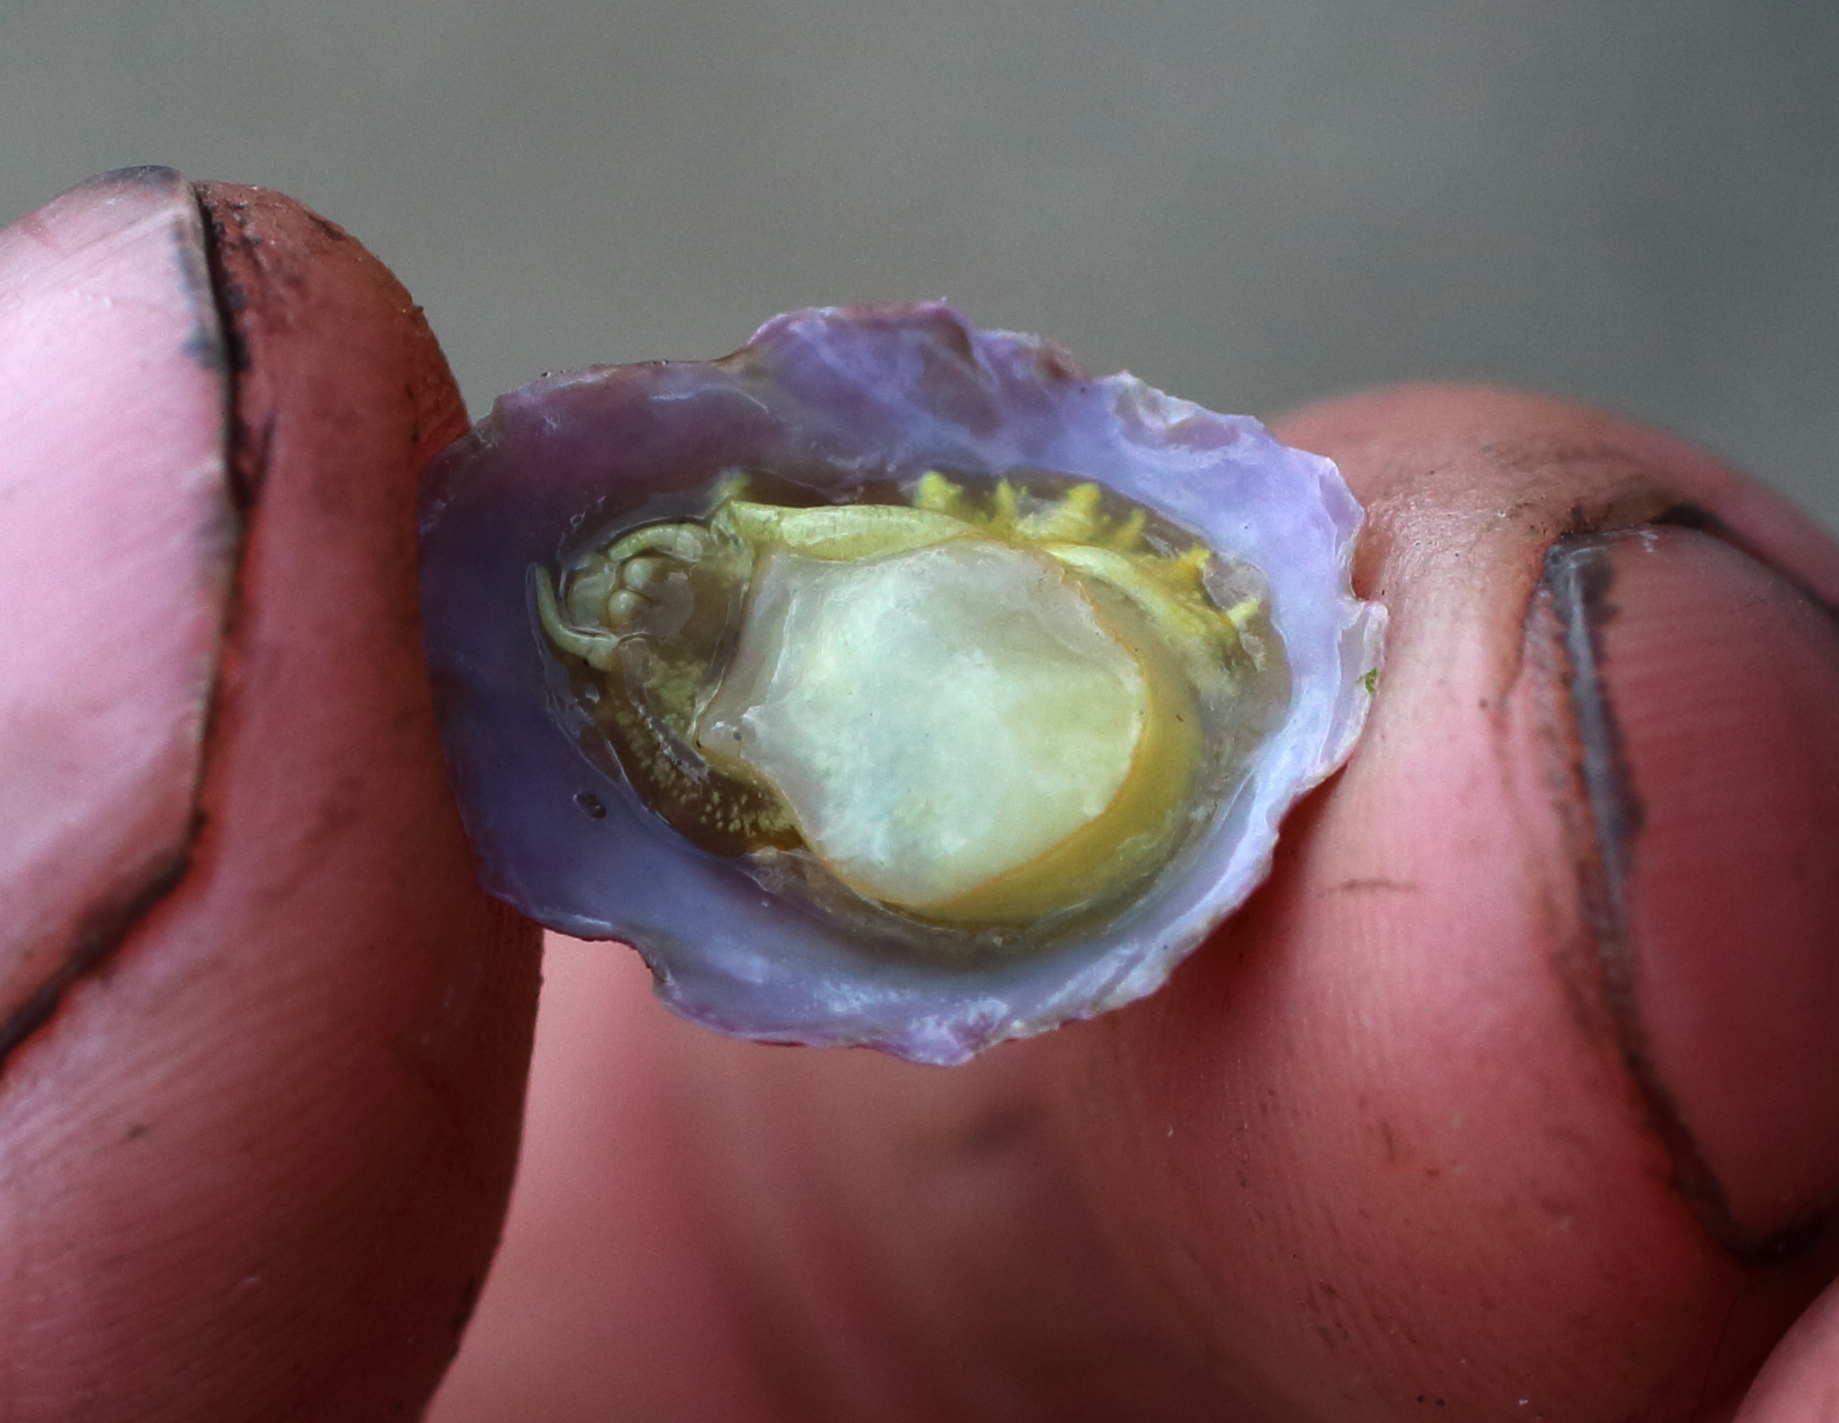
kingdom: Animalia
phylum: Mollusca
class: Gastropoda
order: Littorinimorpha
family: Calyptraeidae
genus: Crepipatella
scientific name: Crepipatella lingulata
